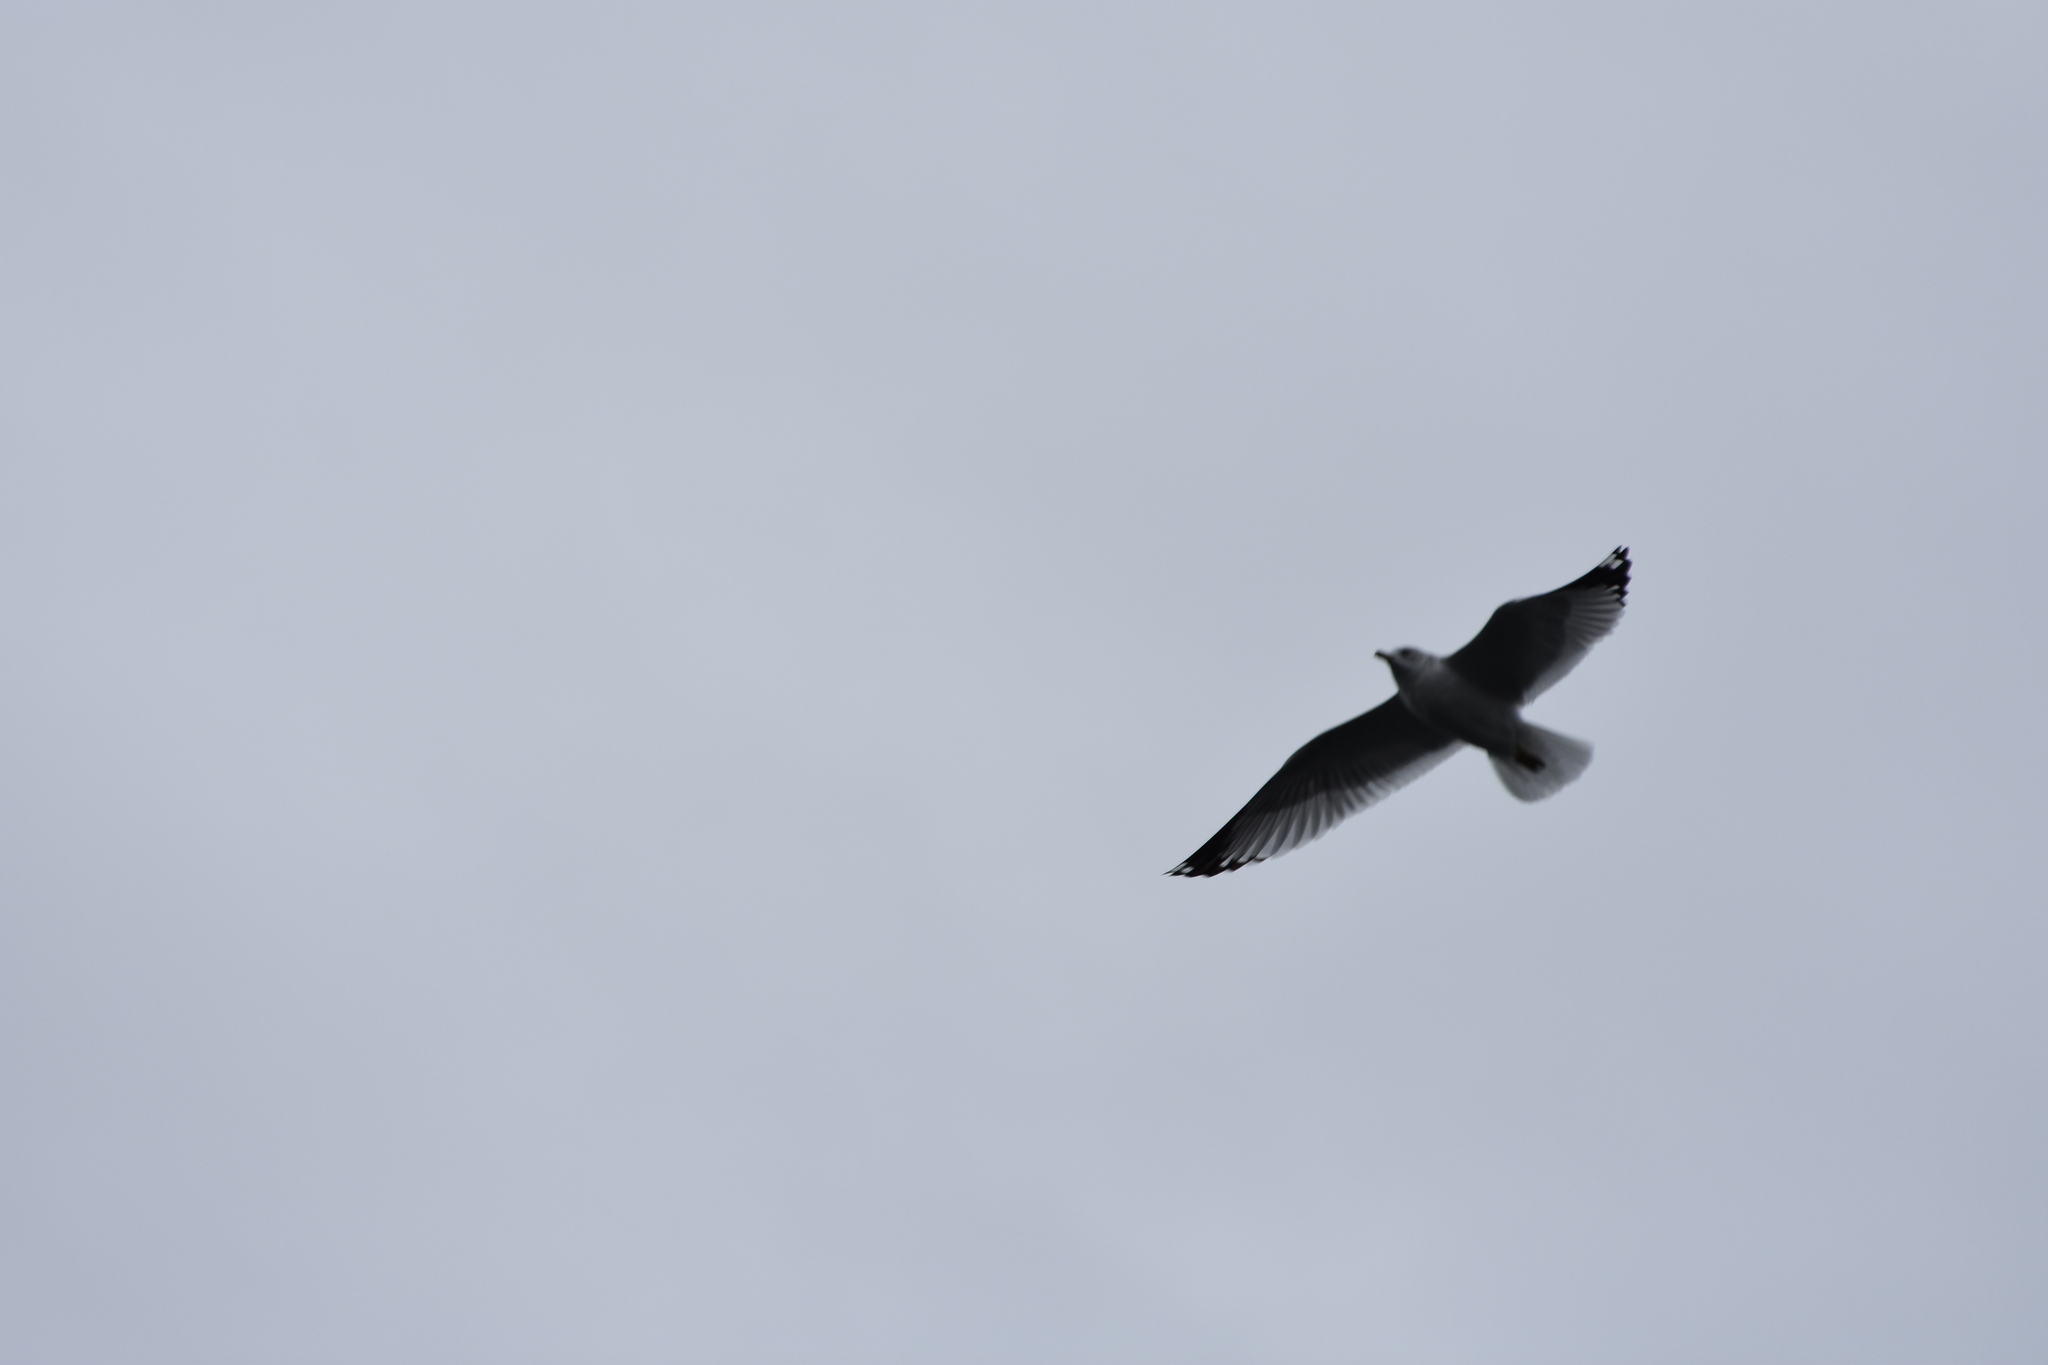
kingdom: Animalia
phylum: Chordata
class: Aves
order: Charadriiformes
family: Laridae
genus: Leucophaeus
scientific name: Leucophaeus atricilla
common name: Laughing gull
